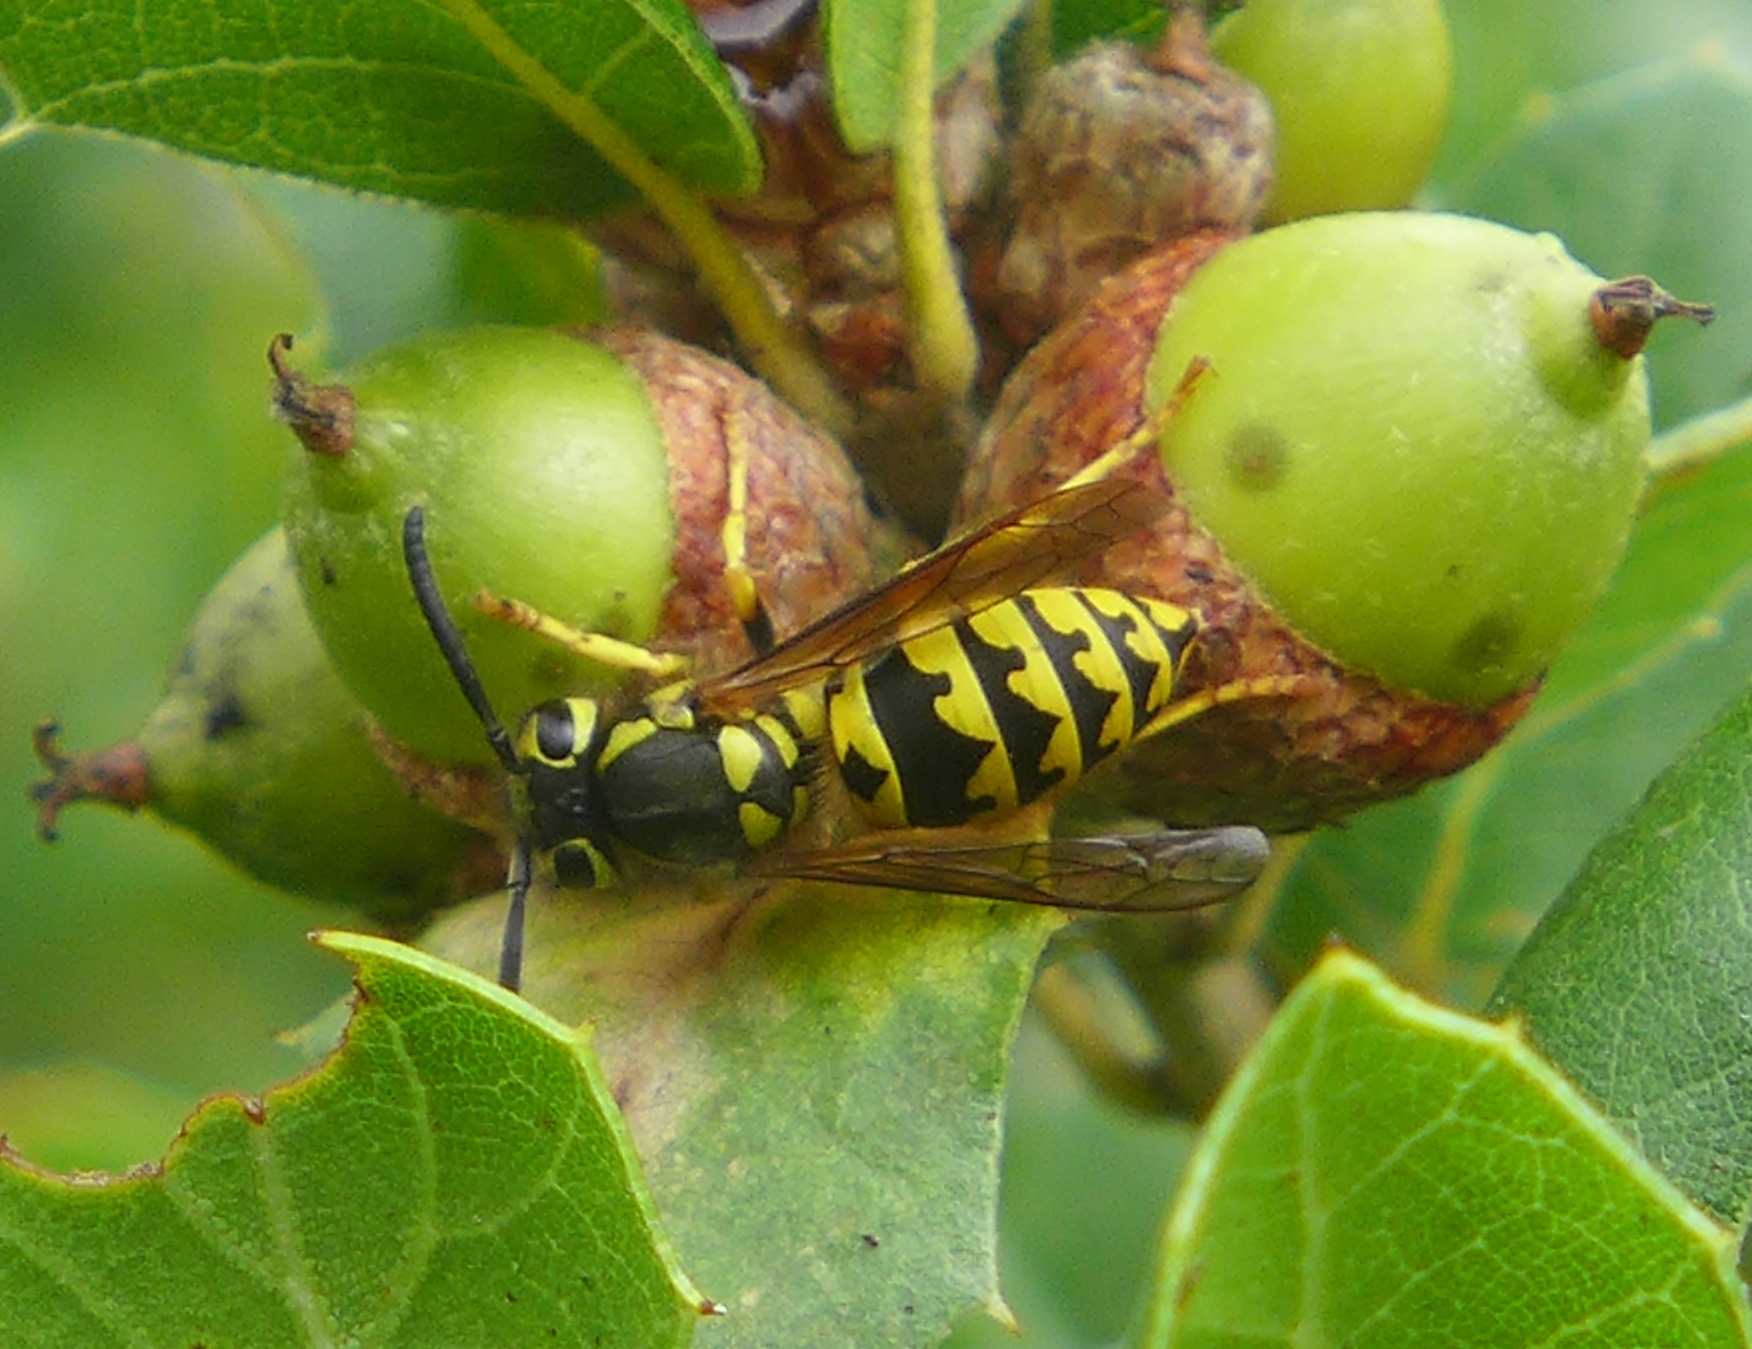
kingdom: Animalia
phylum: Arthropoda
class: Insecta
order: Hymenoptera
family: Vespidae
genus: Vespula
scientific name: Vespula pensylvanica
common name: Western yellowjacket
